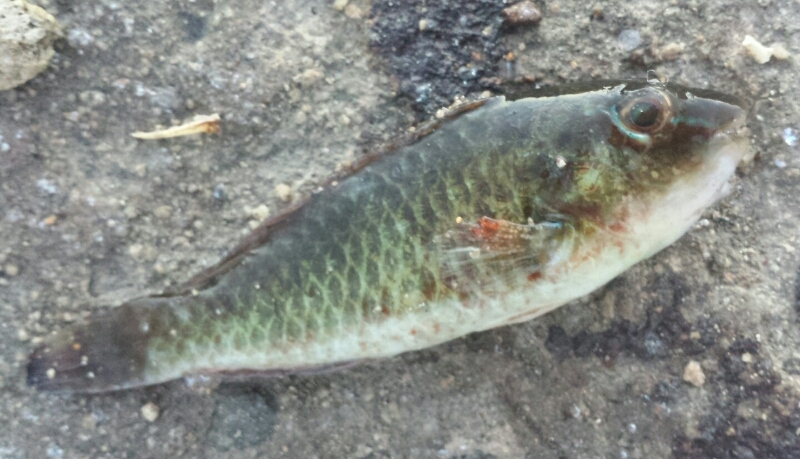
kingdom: Animalia
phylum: Chordata
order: Perciformes
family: Labridae
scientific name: Labridae
